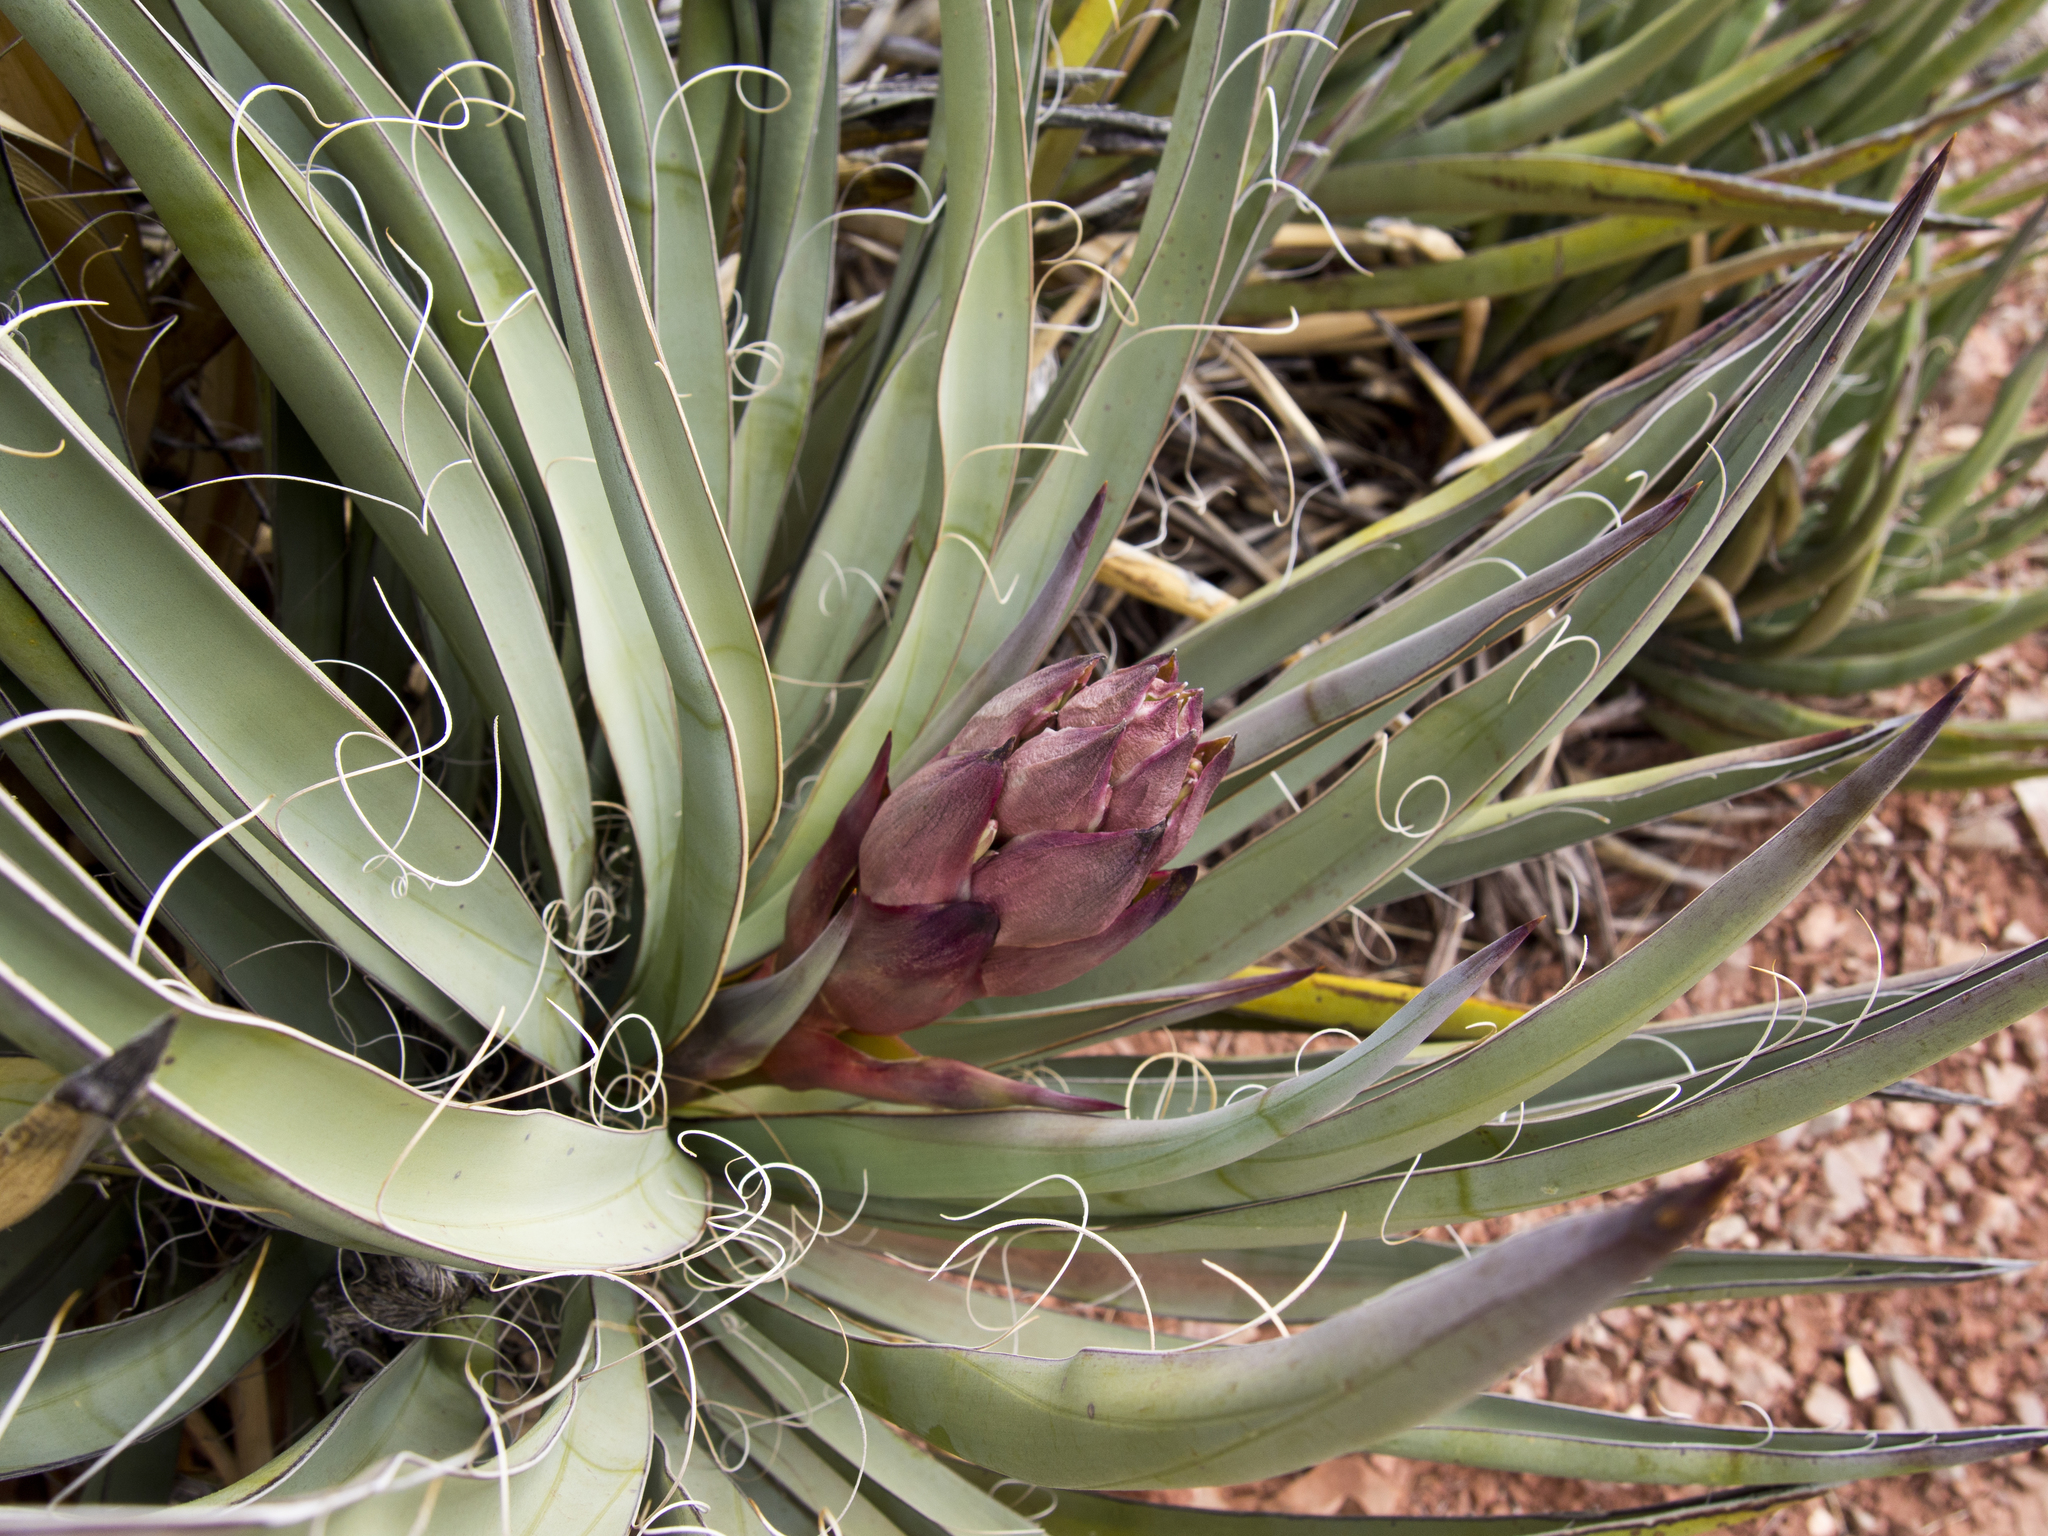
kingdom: Plantae
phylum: Tracheophyta
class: Liliopsida
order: Asparagales
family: Asparagaceae
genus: Yucca
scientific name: Yucca baccata
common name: Banana yucca
